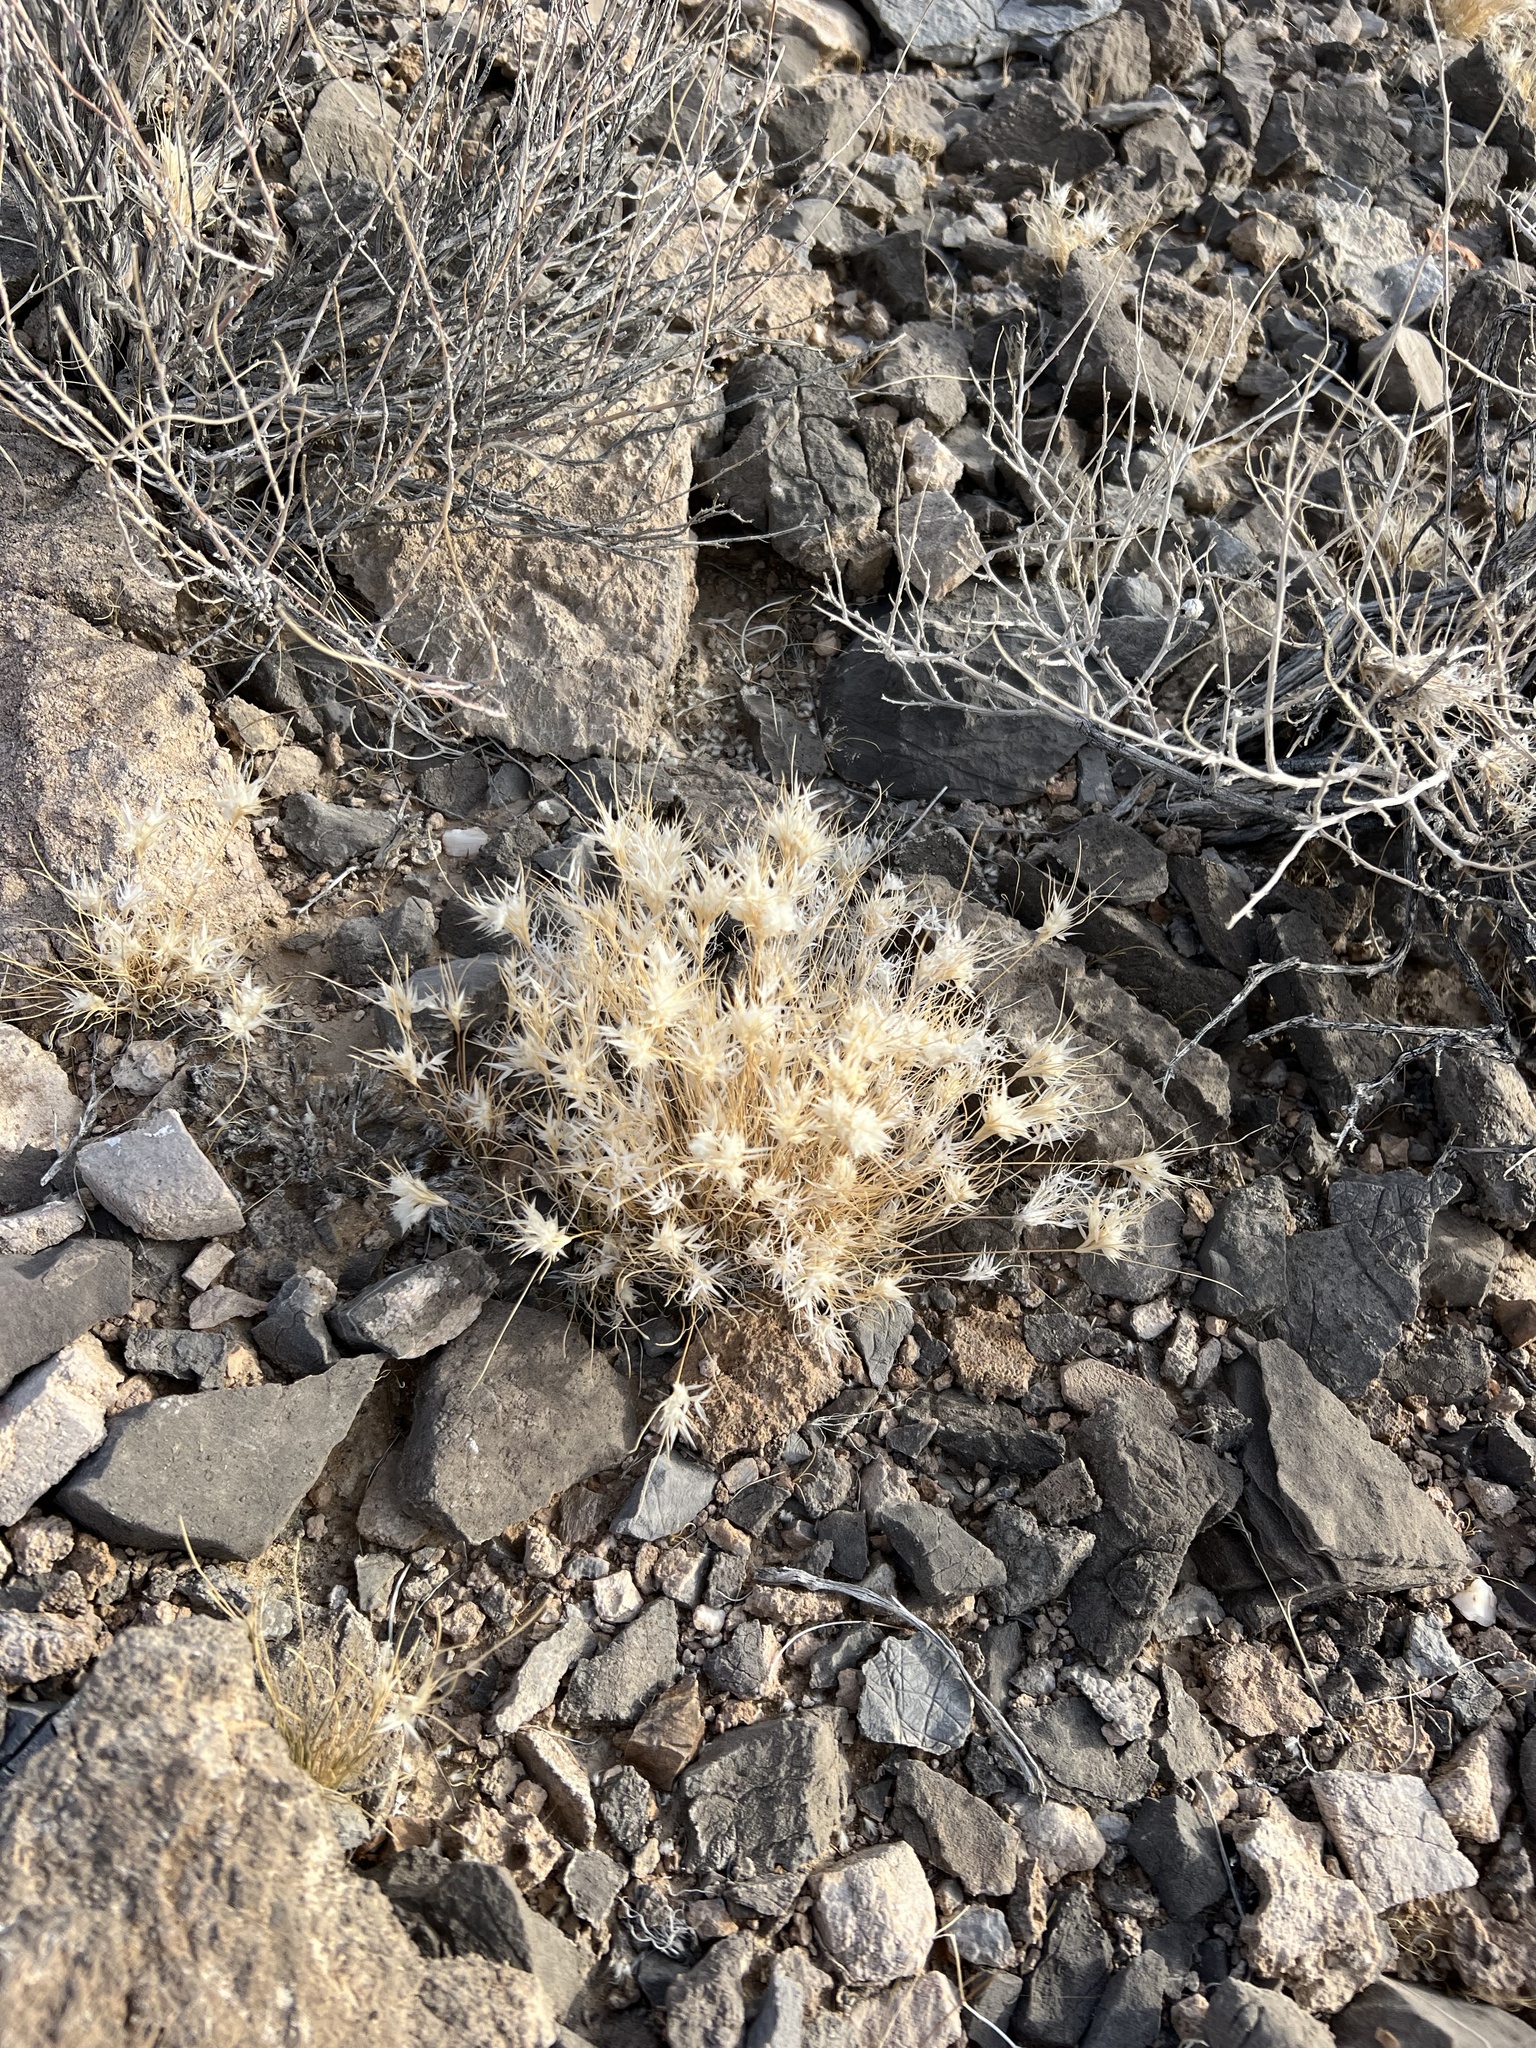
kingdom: Plantae
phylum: Tracheophyta
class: Liliopsida
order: Poales
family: Poaceae
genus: Dasyochloa
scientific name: Dasyochloa pulchella
